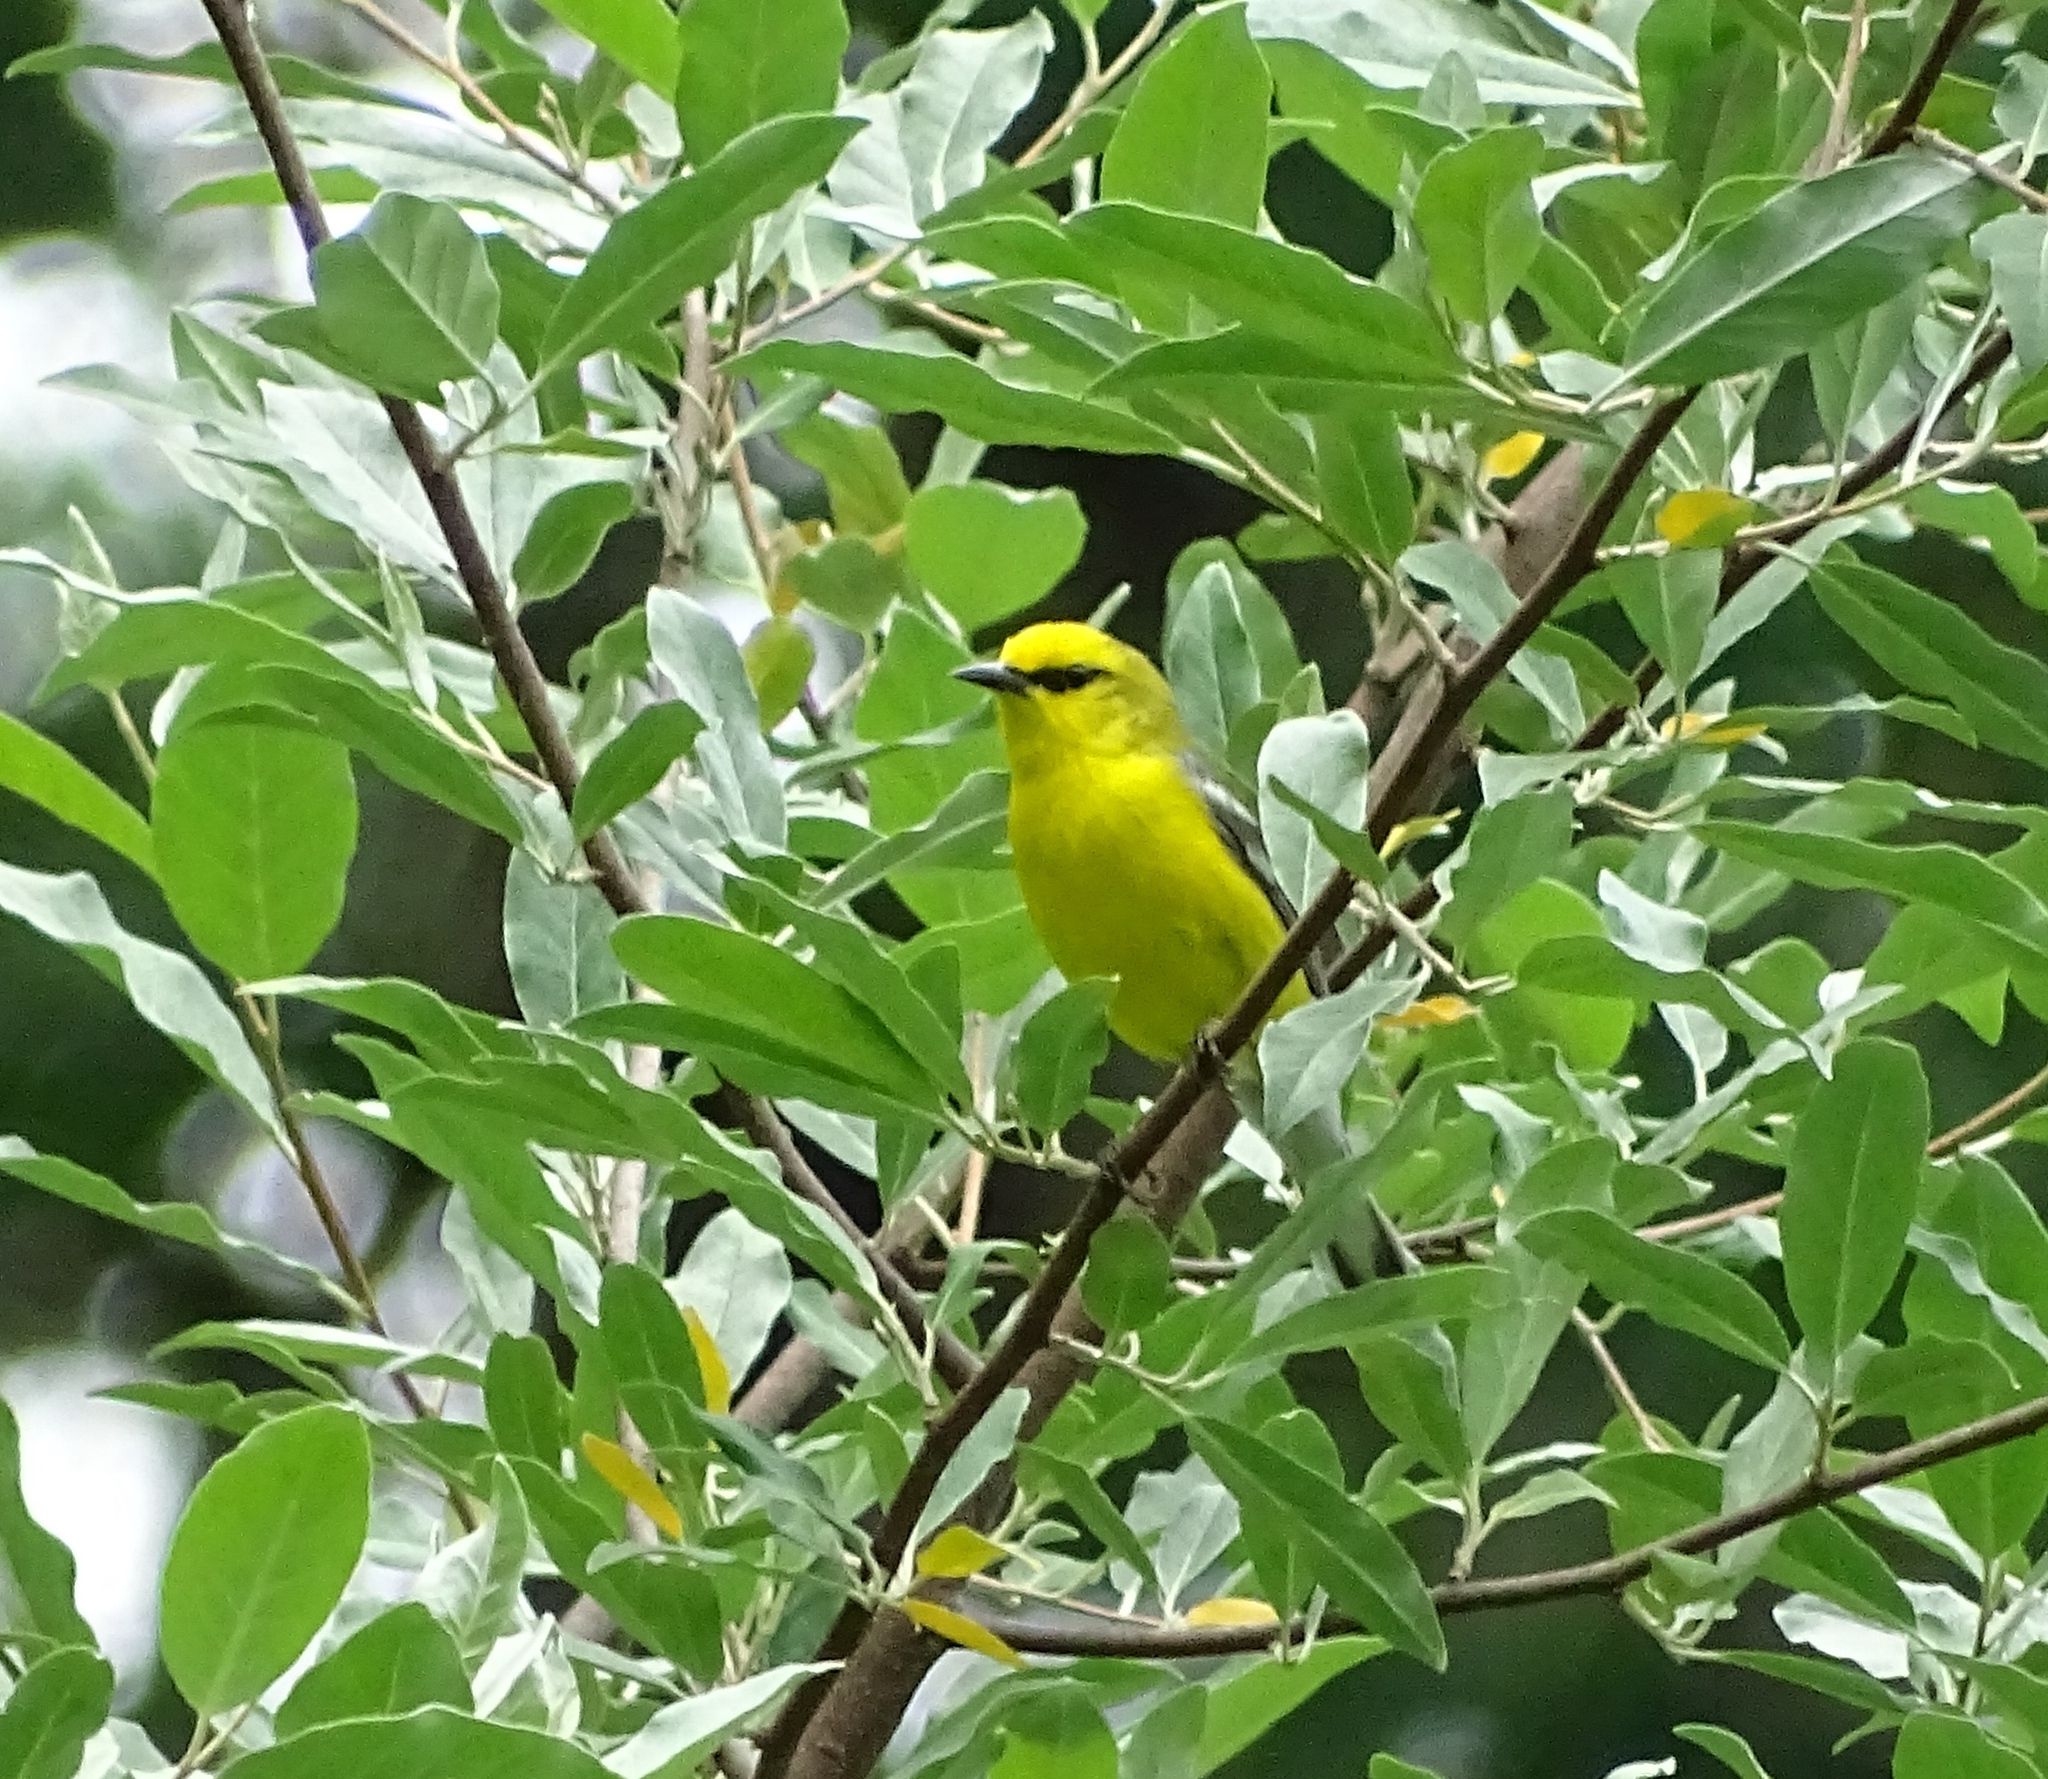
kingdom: Animalia
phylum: Chordata
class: Aves
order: Passeriformes
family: Parulidae
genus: Vermivora
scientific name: Vermivora cyanoptera
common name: Blue-winged warbler
